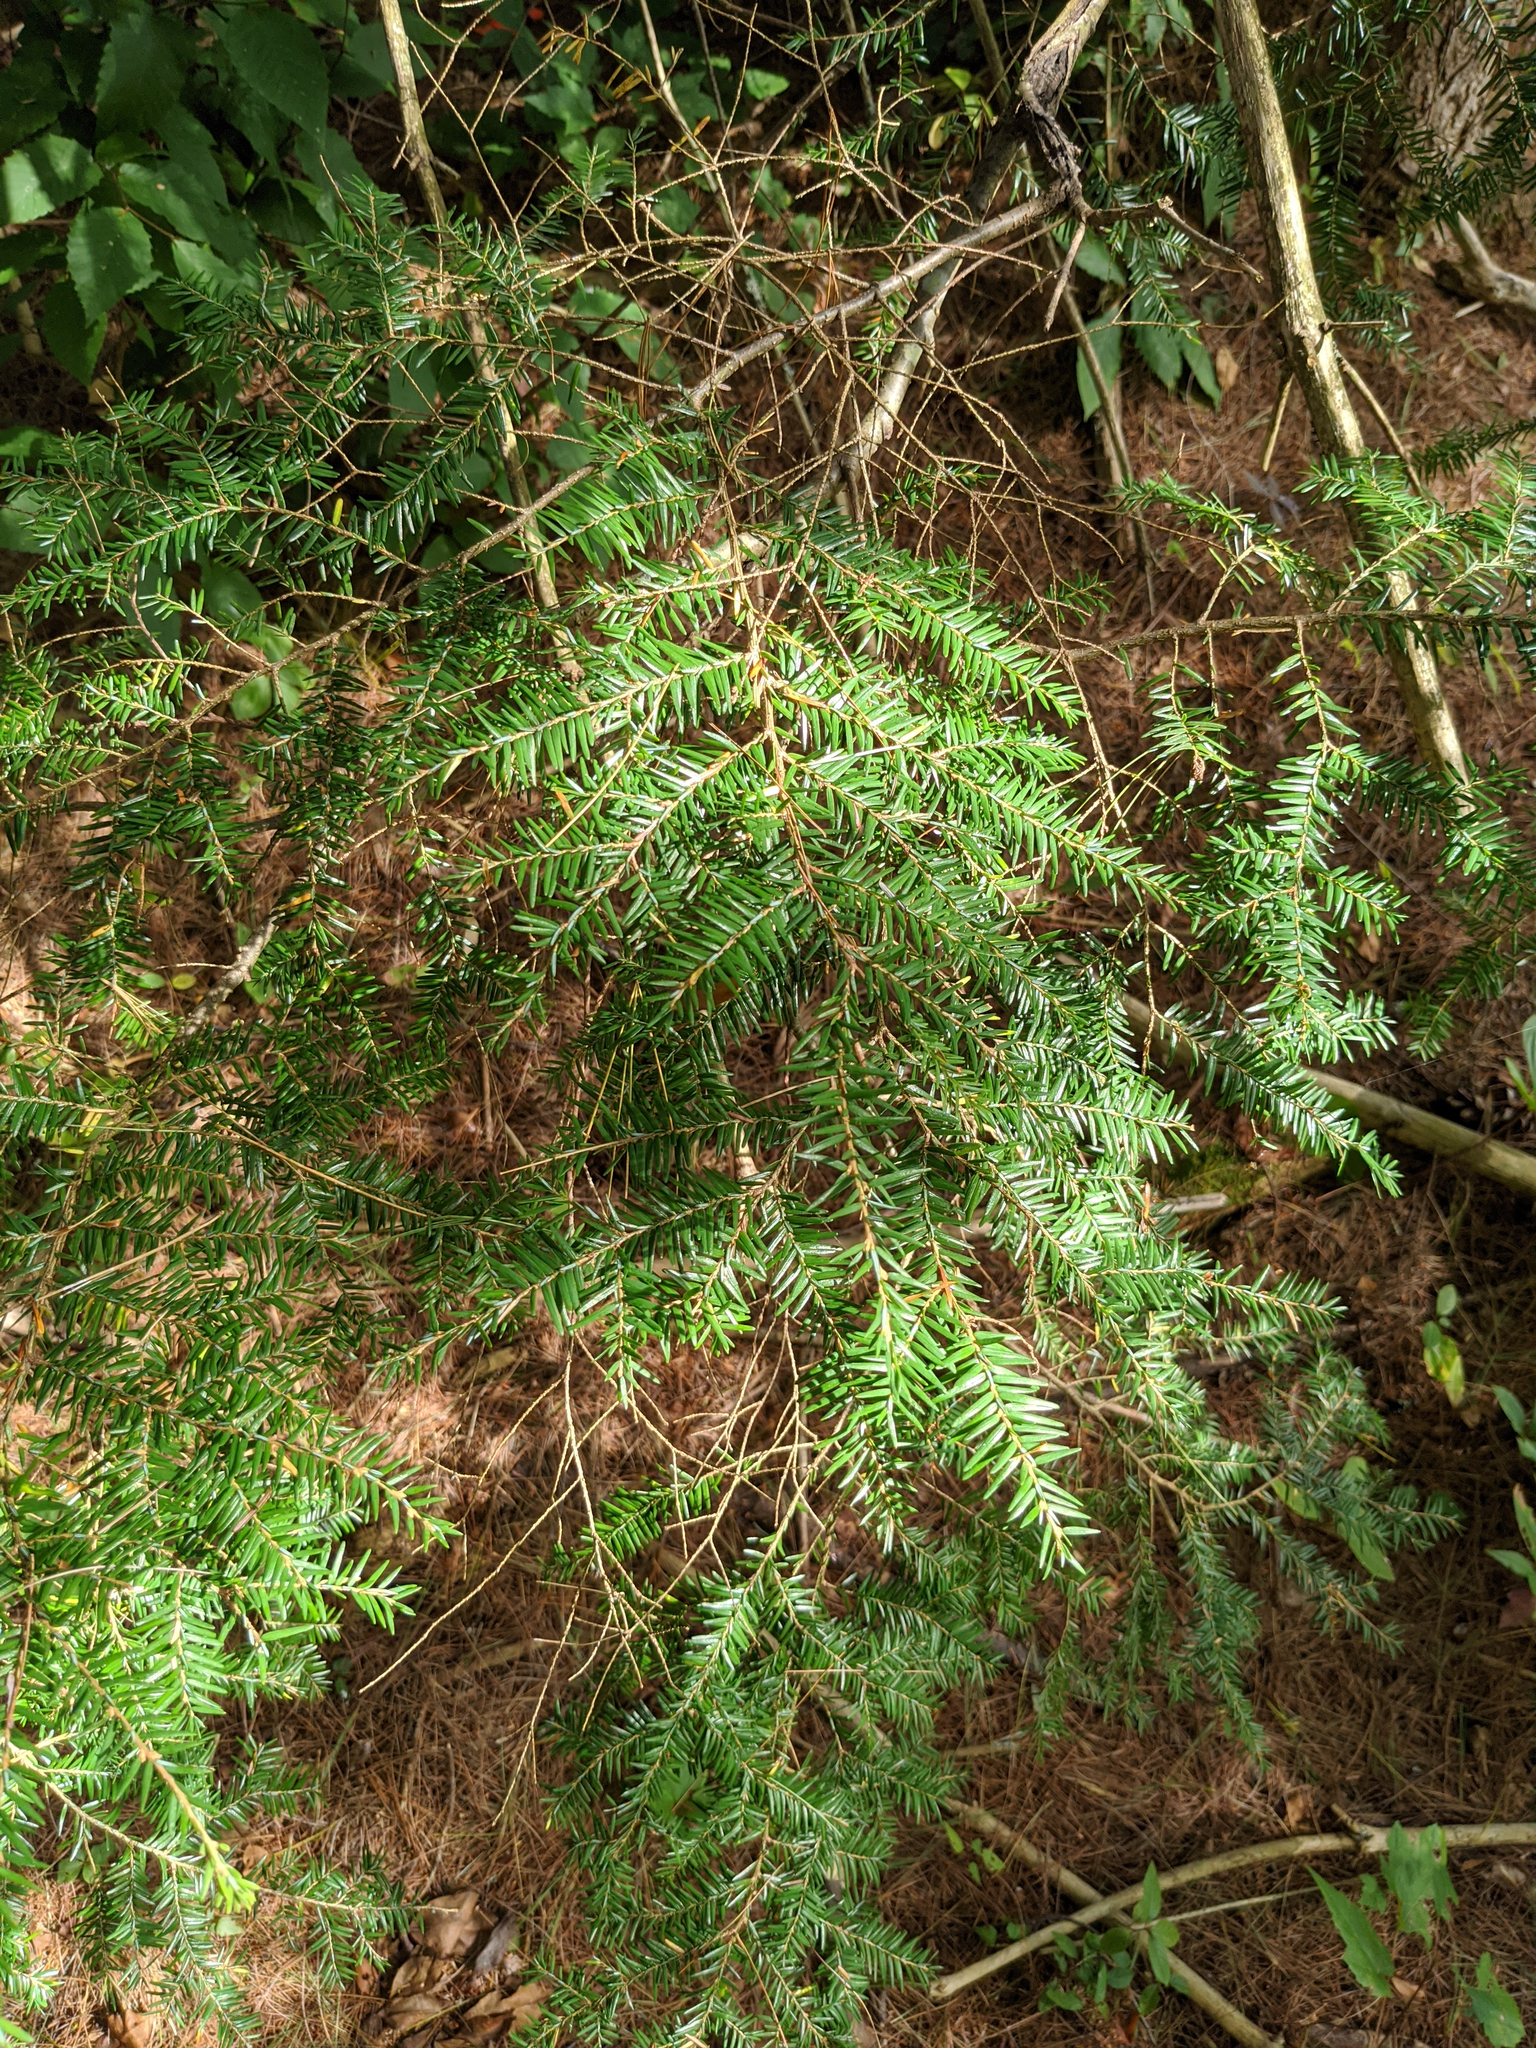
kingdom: Plantae
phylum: Tracheophyta
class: Pinopsida
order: Pinales
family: Pinaceae
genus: Tsuga
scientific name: Tsuga canadensis
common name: Eastern hemlock
